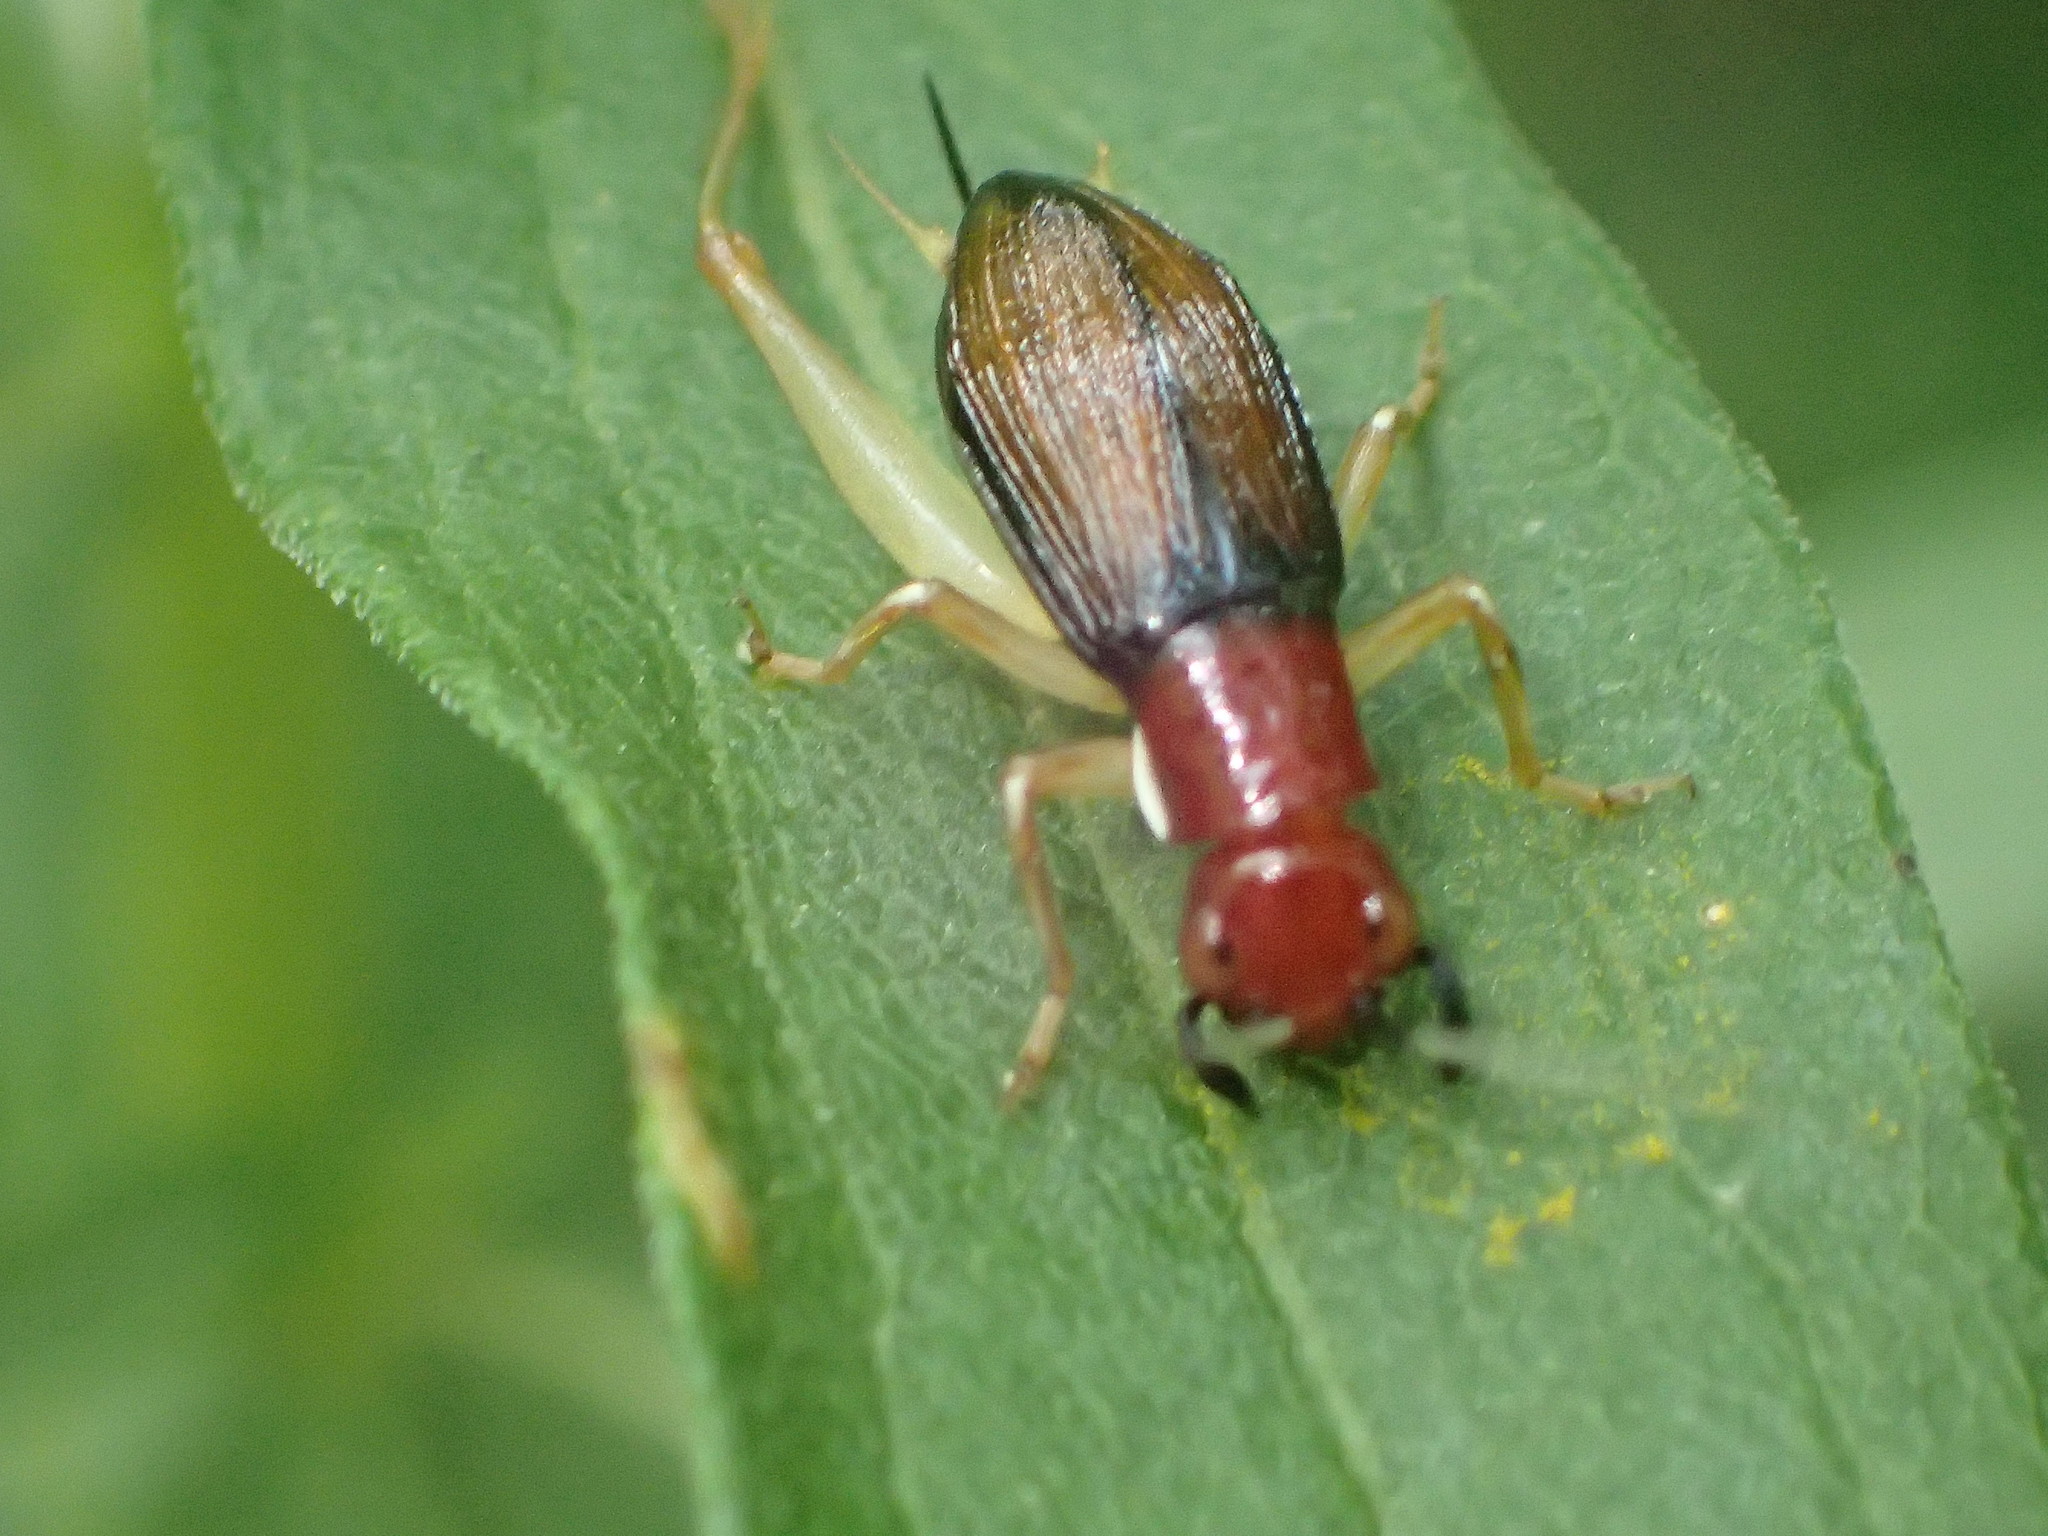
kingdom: Animalia
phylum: Arthropoda
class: Insecta
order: Orthoptera
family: Trigonidiidae
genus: Phyllopalpus
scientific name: Phyllopalpus pulchellus
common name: Handsome trig
